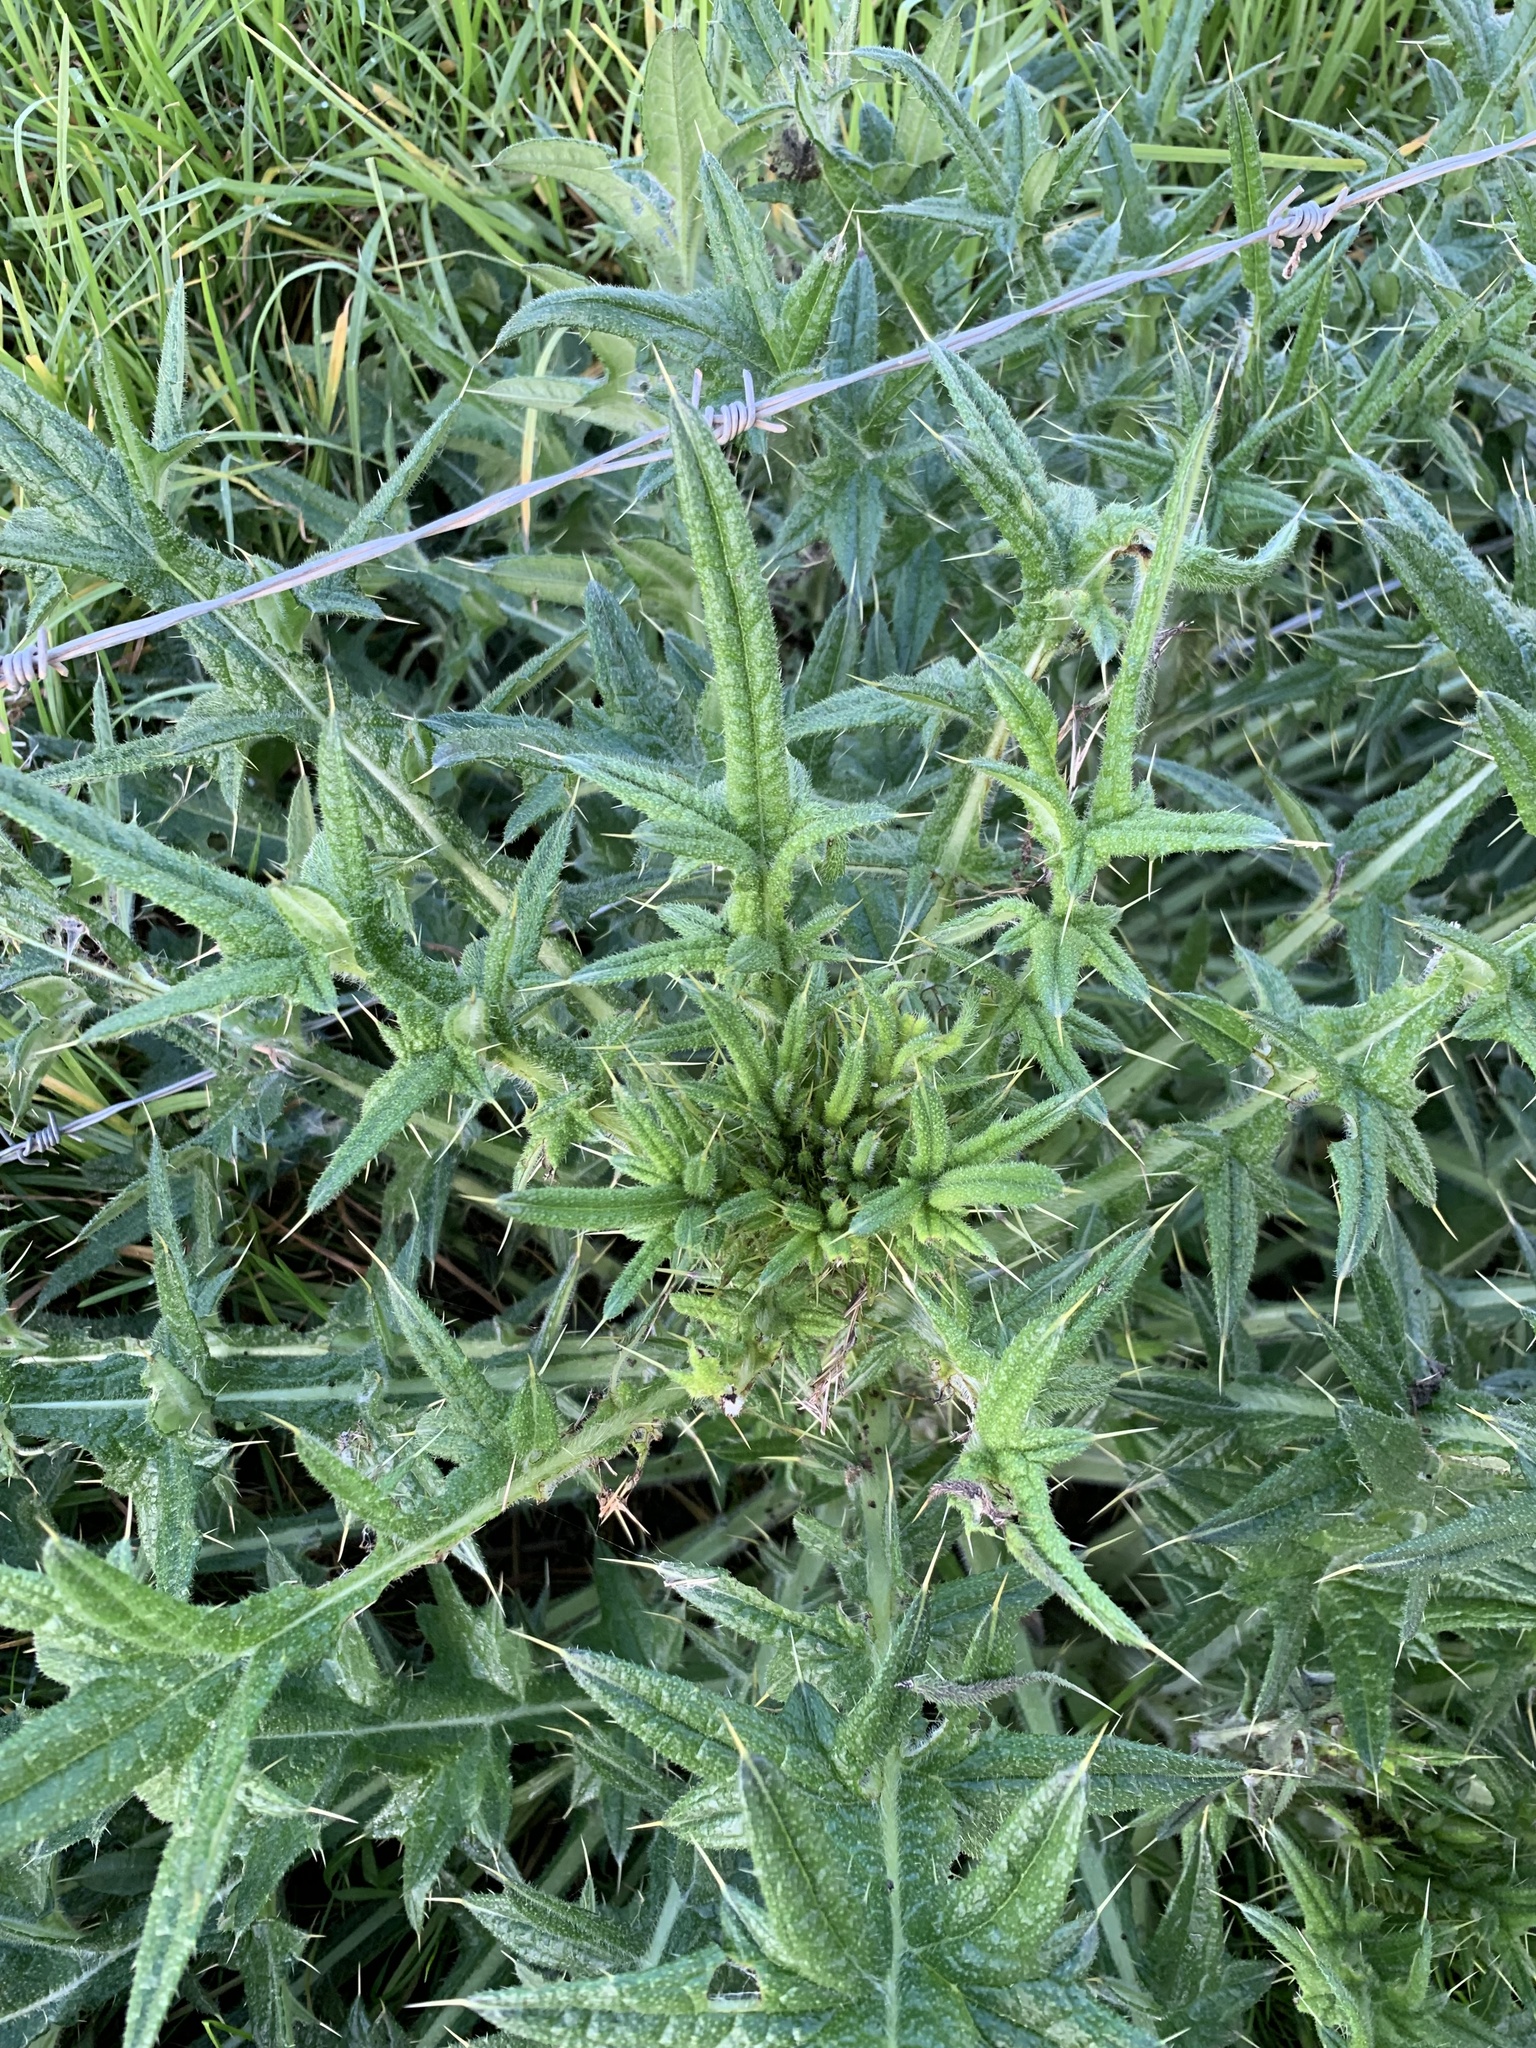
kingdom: Plantae
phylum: Tracheophyta
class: Magnoliopsida
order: Asterales
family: Asteraceae
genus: Cirsium
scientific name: Cirsium vulgare
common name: Bull thistle
